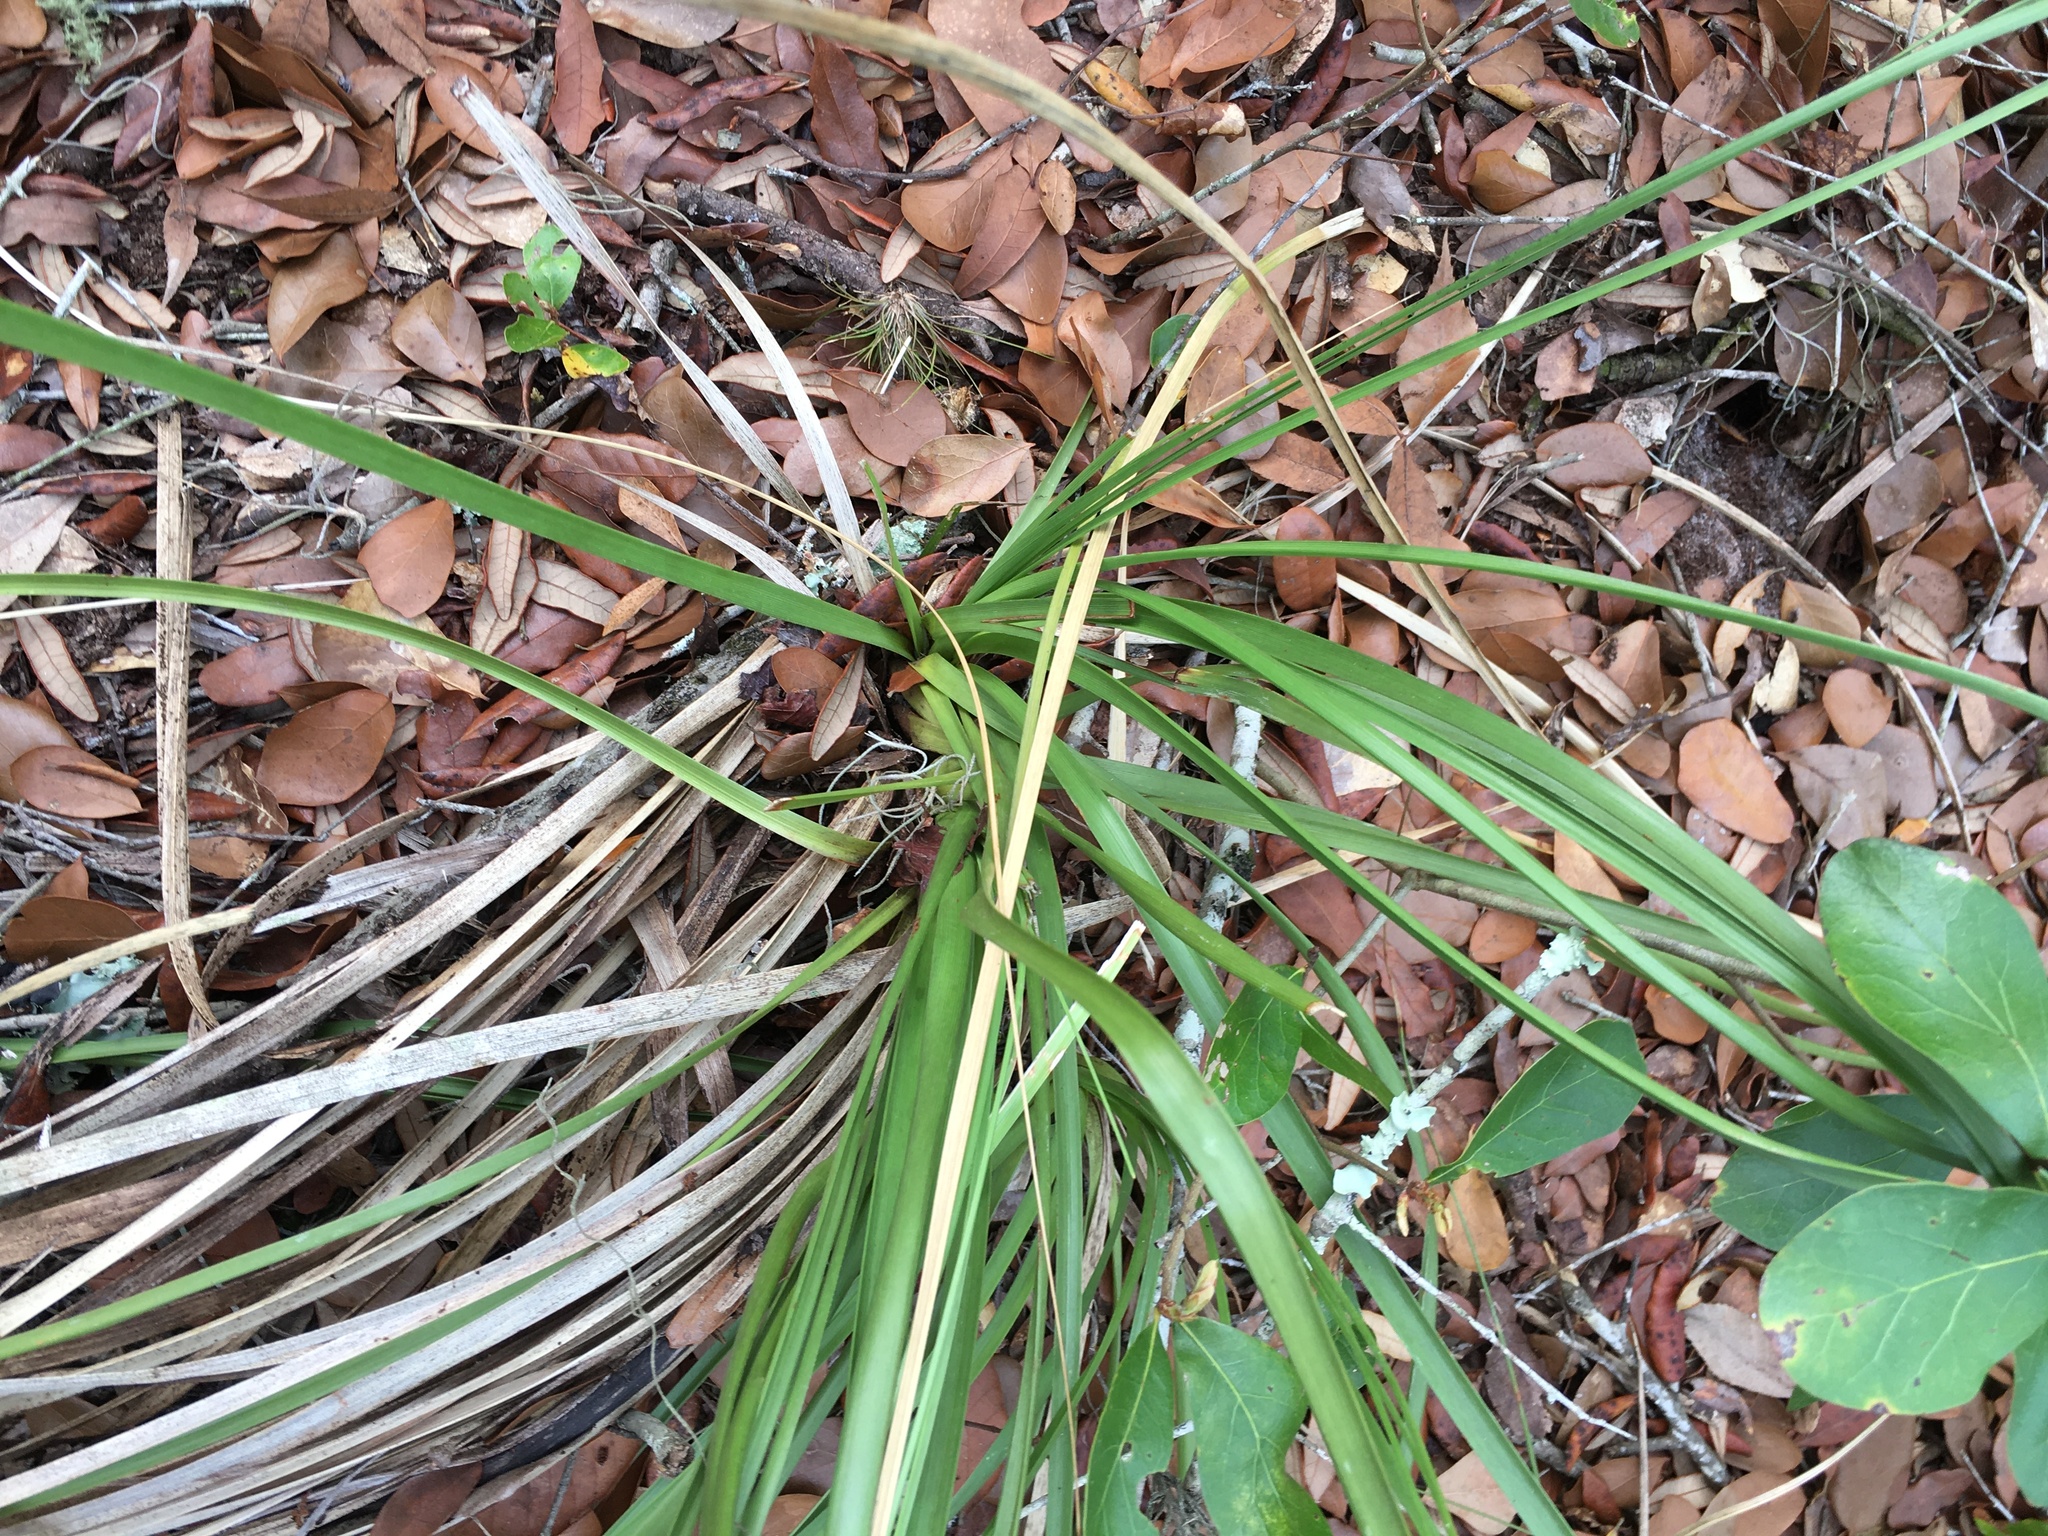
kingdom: Plantae
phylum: Tracheophyta
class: Liliopsida
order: Asparagales
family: Asparagaceae
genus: Nolina
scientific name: Nolina brittoniana
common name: Britton's bear-grass
